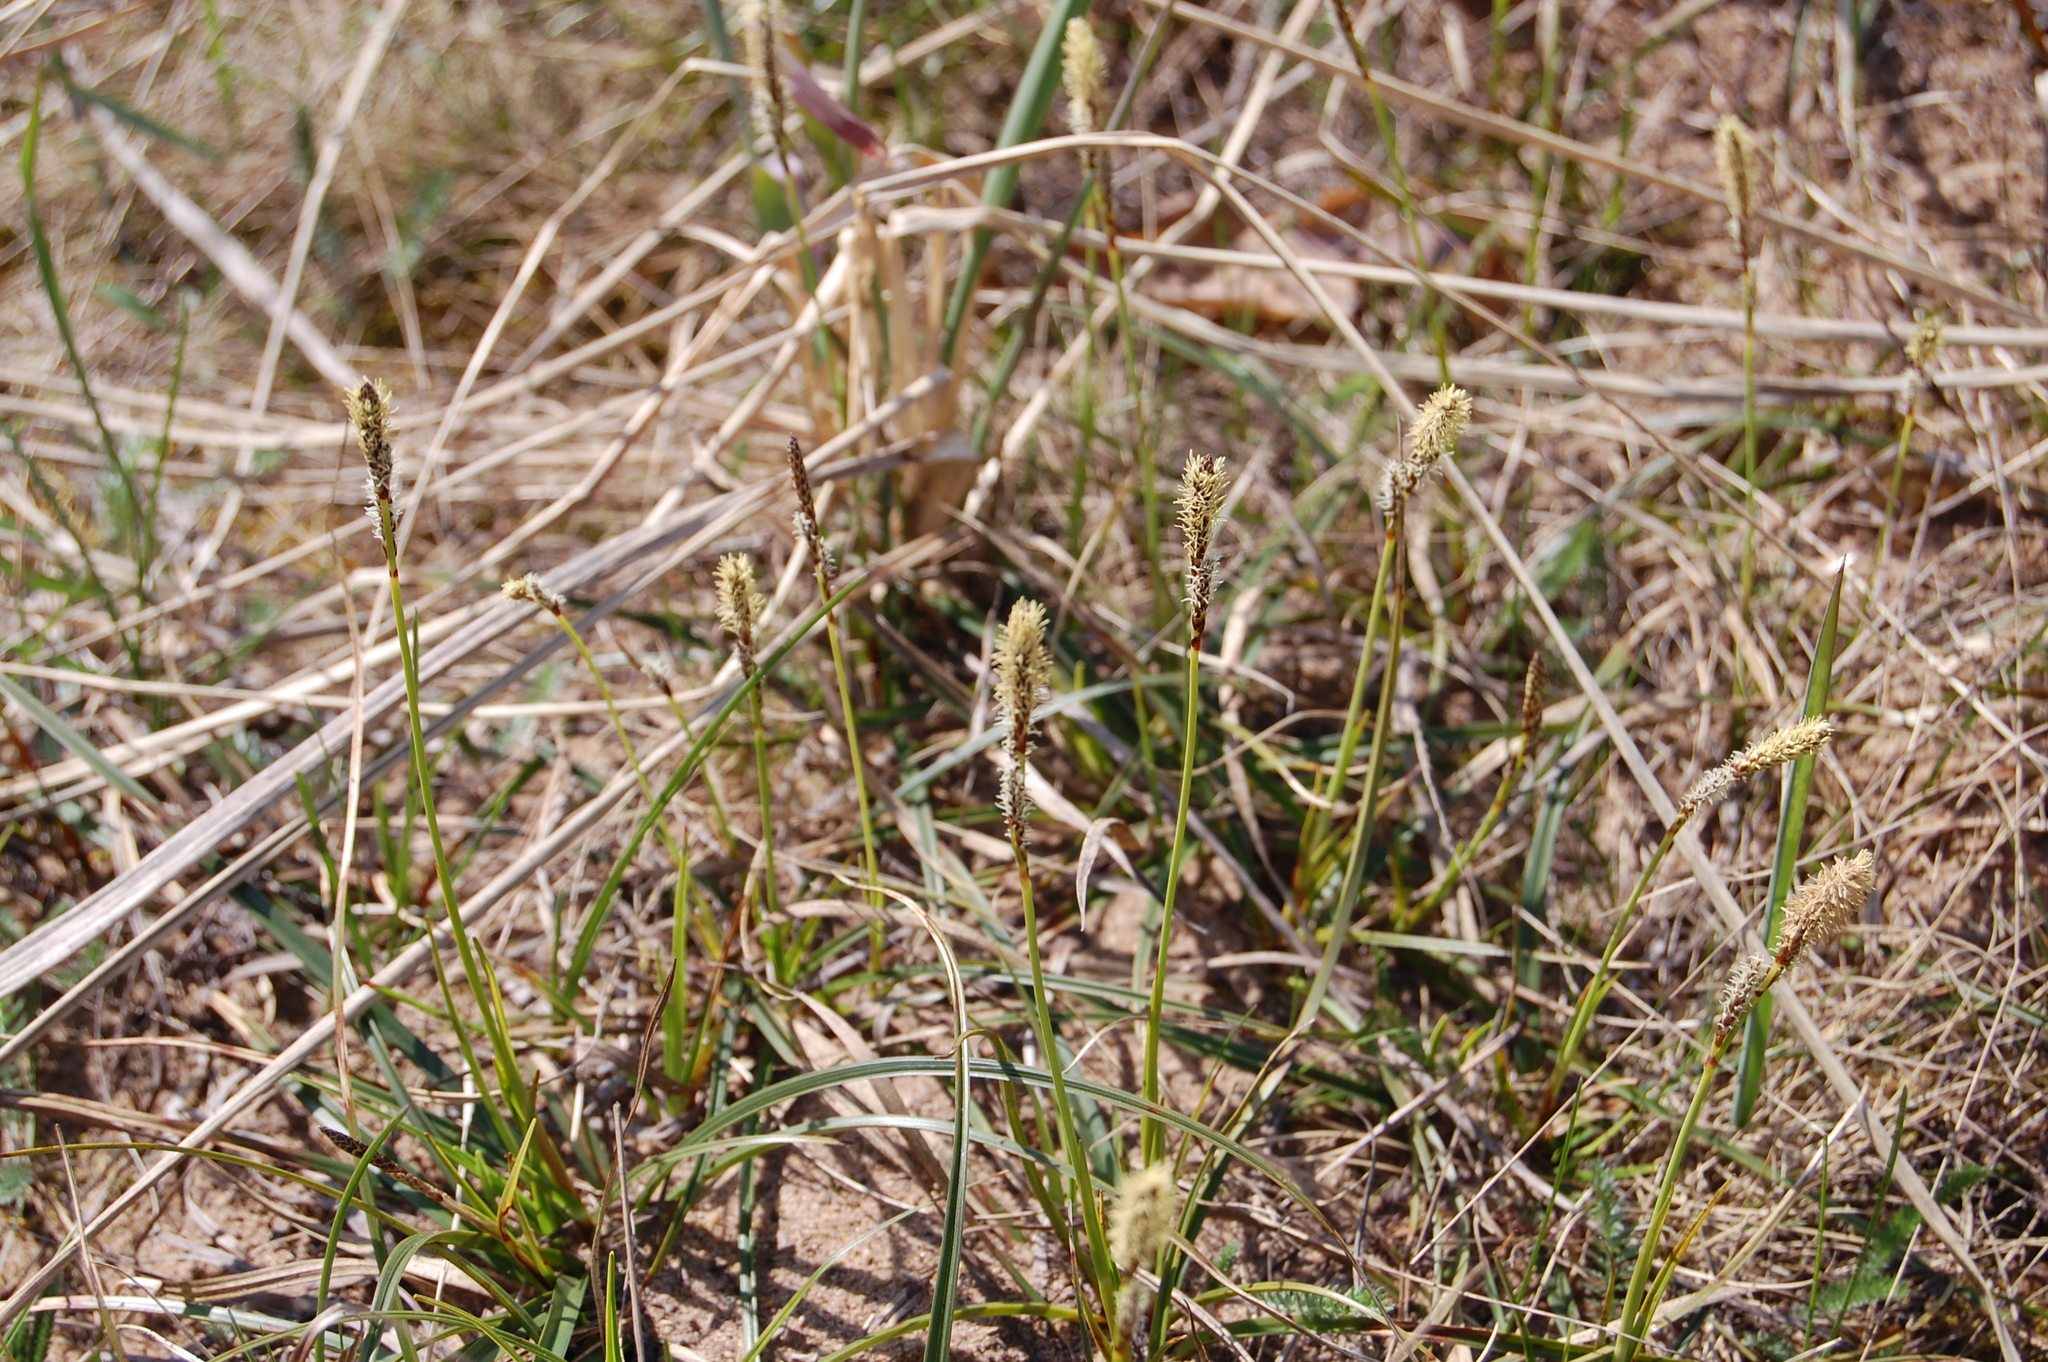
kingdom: Plantae
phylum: Tracheophyta
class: Liliopsida
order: Poales
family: Cyperaceae
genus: Carex
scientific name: Carex ericetorum
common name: Rare spring-sedge
